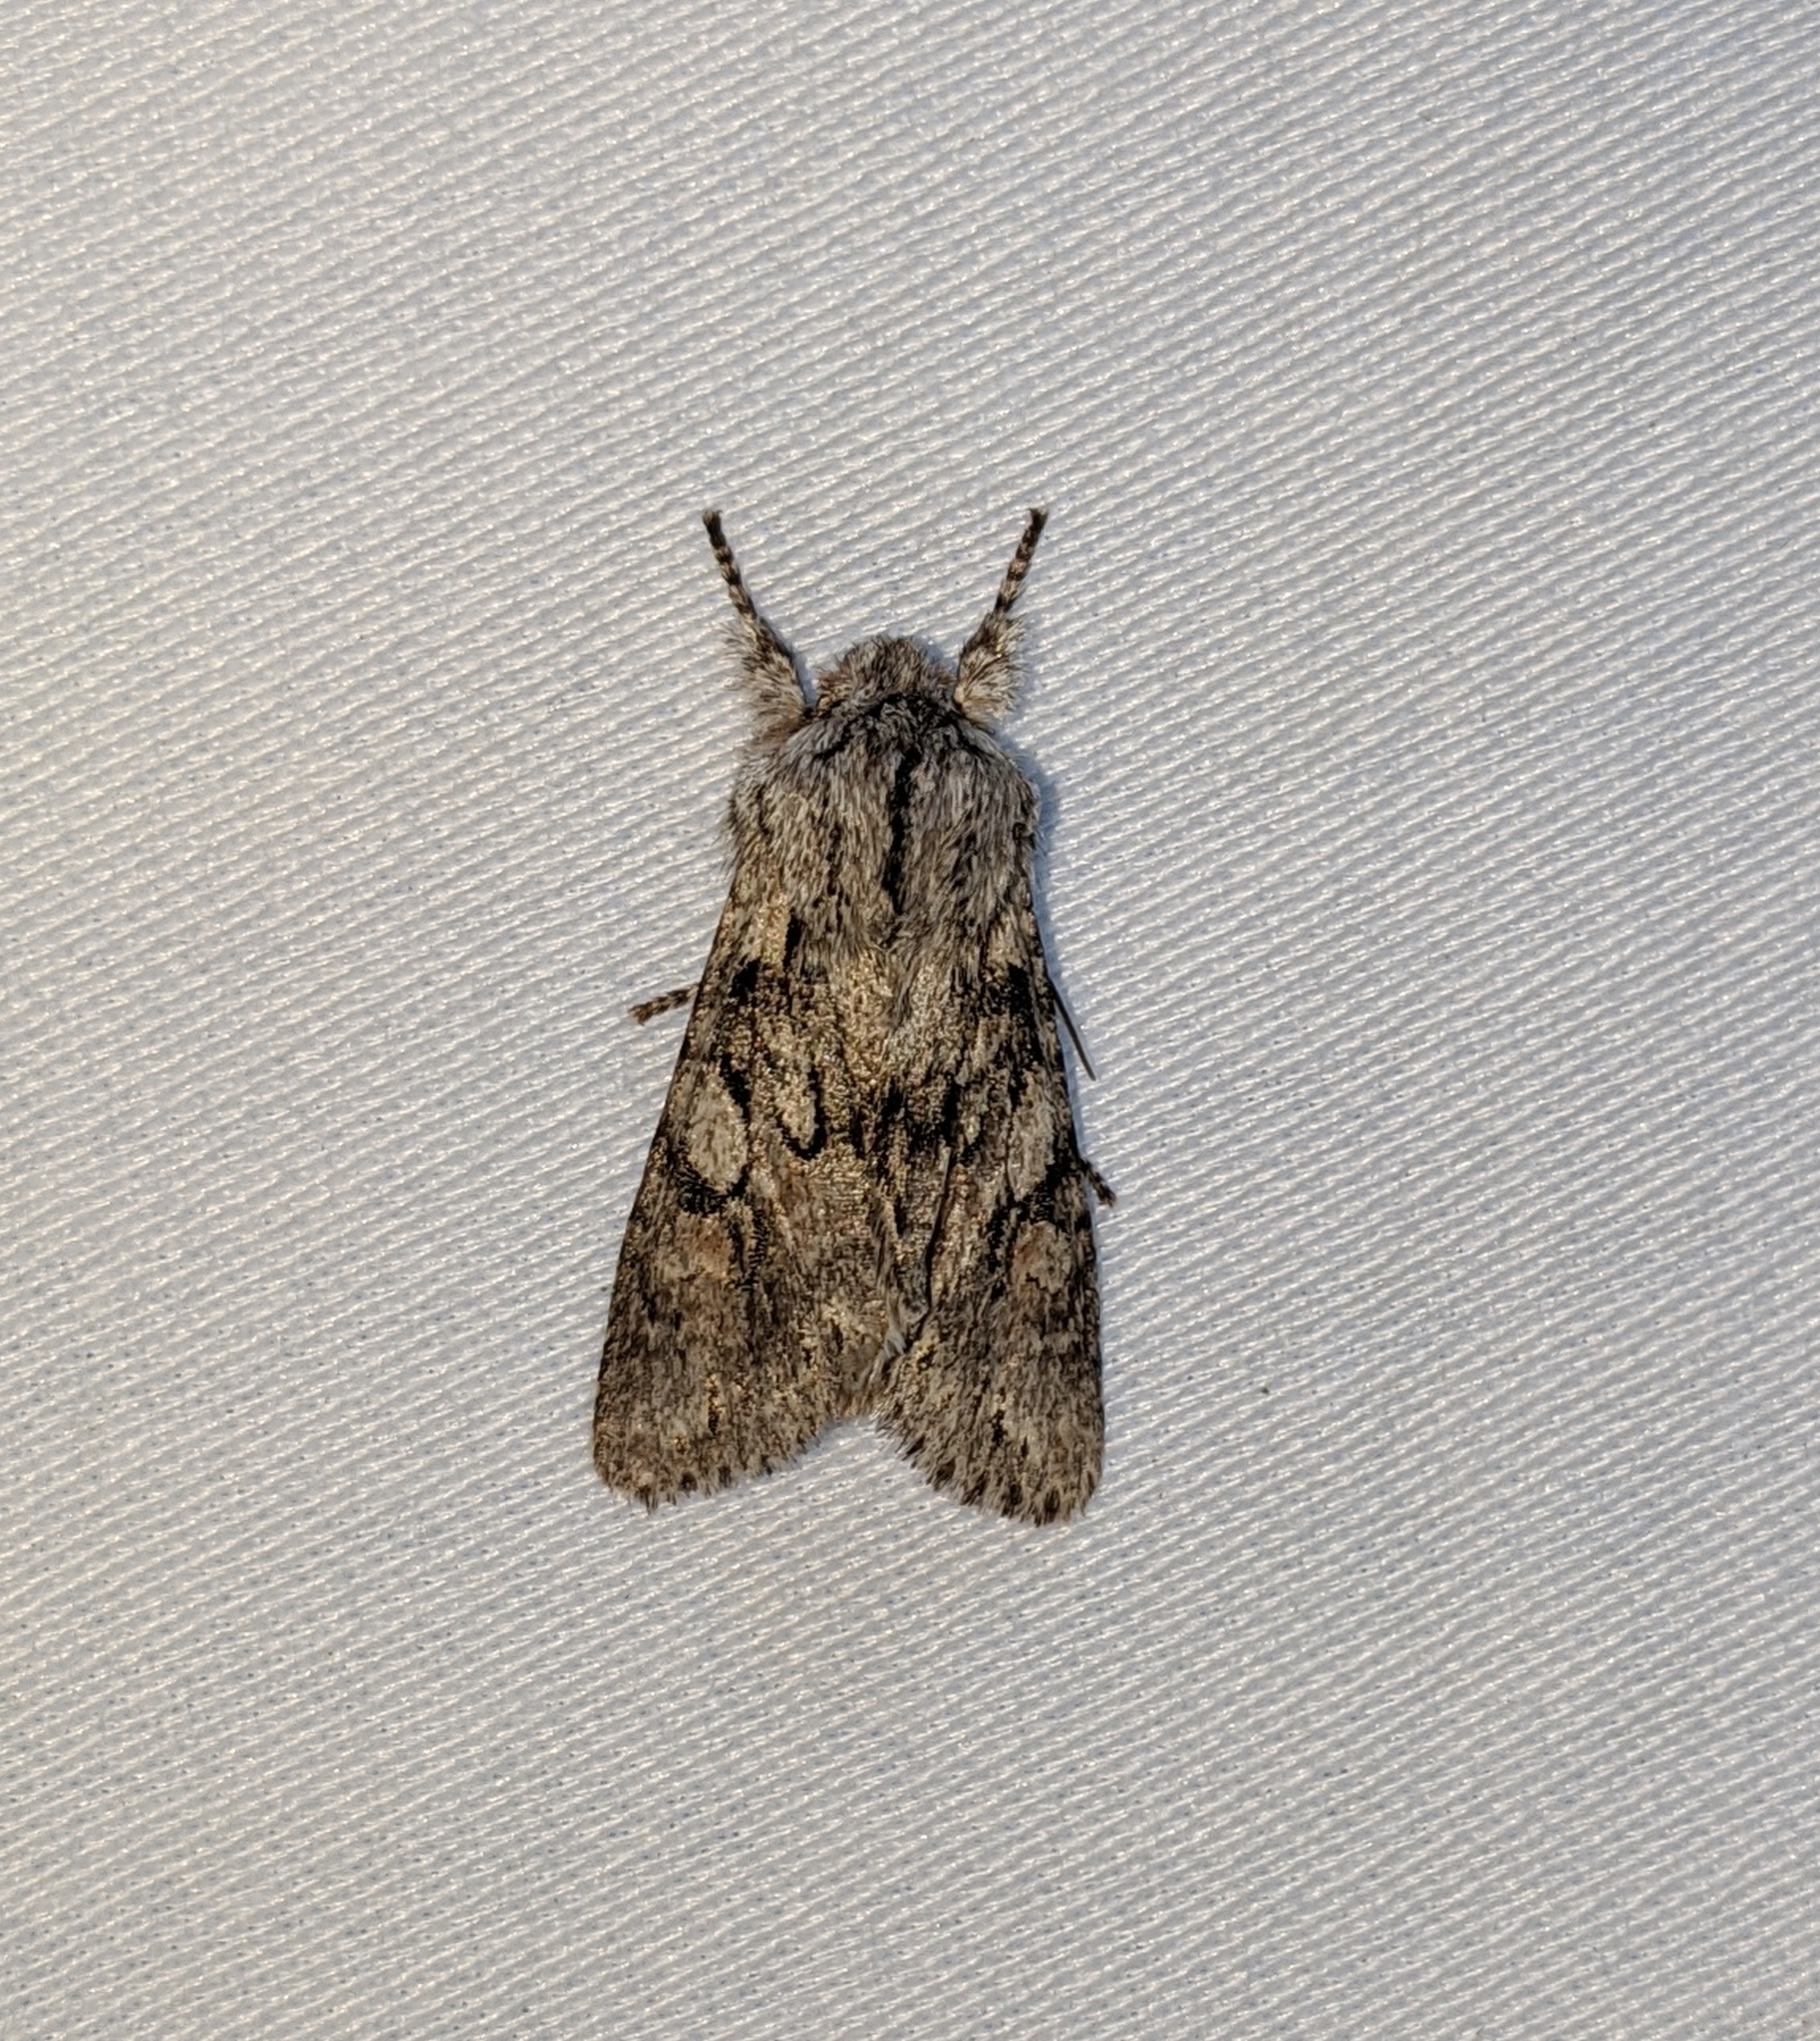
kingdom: Animalia
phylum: Arthropoda
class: Insecta
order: Lepidoptera
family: Noctuidae
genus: Egira
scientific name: Egira simplex
